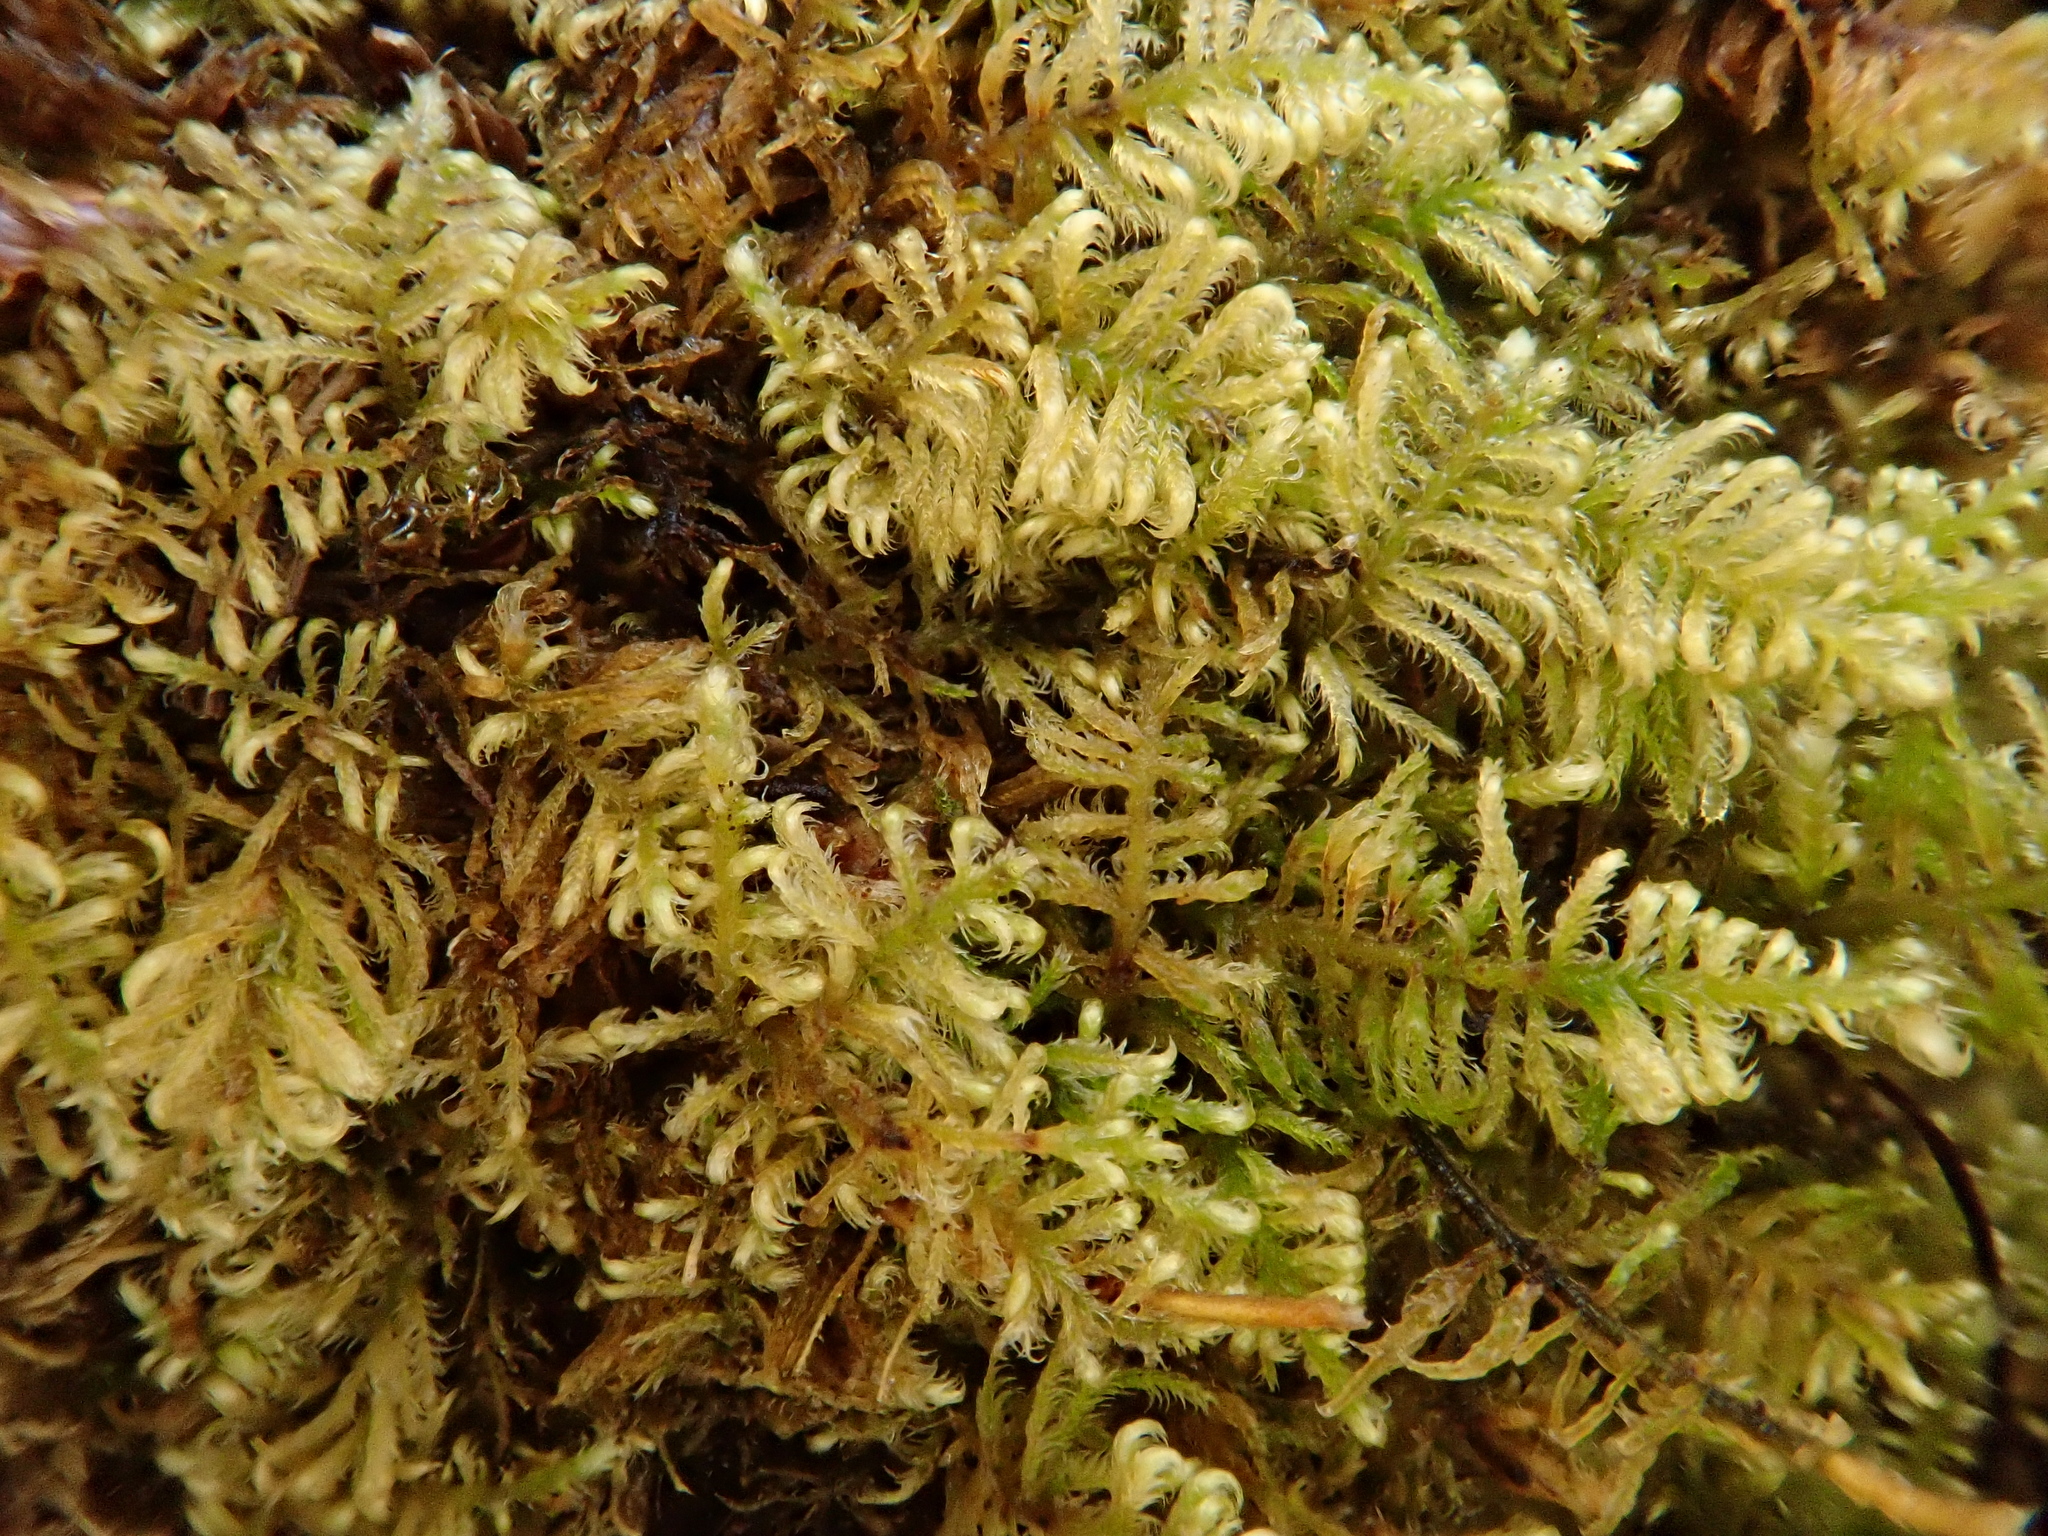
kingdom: Plantae
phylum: Bryophyta
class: Bryopsida
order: Hypnales
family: Myuriaceae
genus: Ctenidium
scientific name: Ctenidium molluscum
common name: Chalk comb-moss
